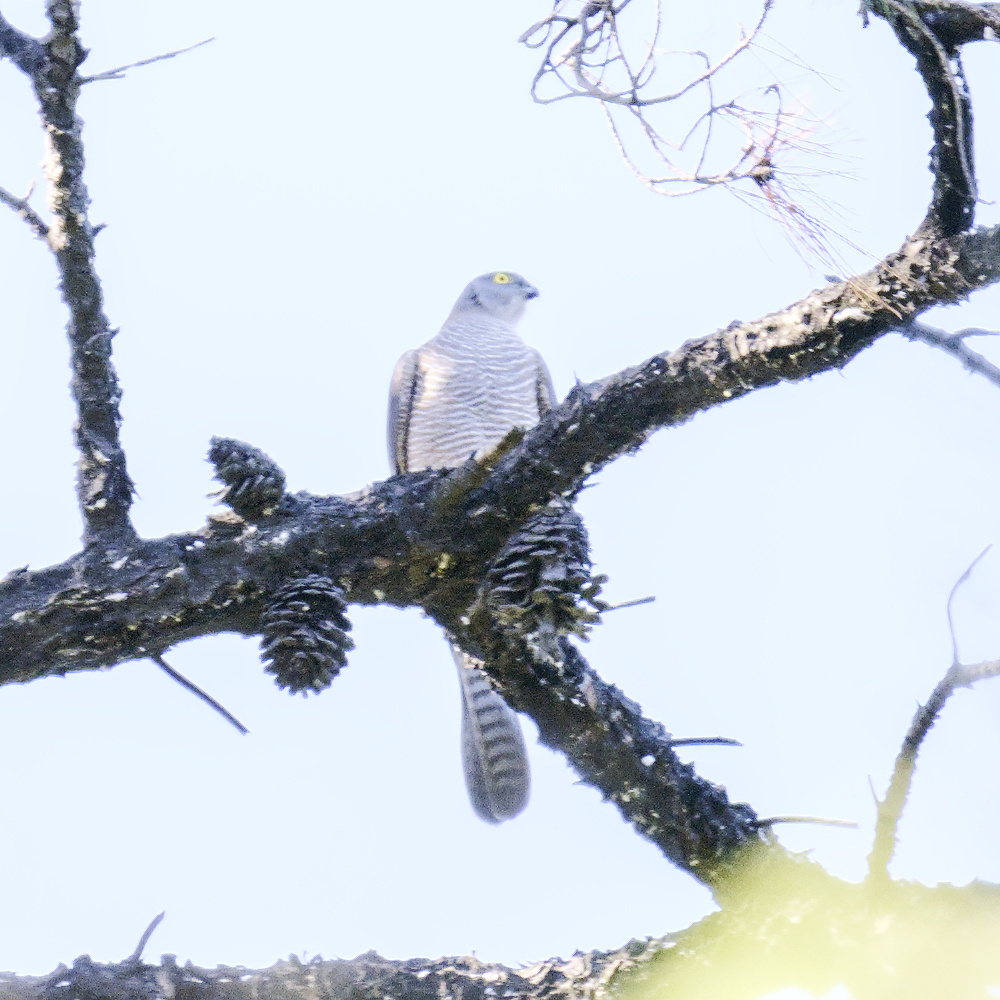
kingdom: Animalia
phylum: Chordata
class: Aves
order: Accipitriformes
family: Accipitridae
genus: Accipiter
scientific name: Accipiter cirrocephalus
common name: Collared sparrowhawk
